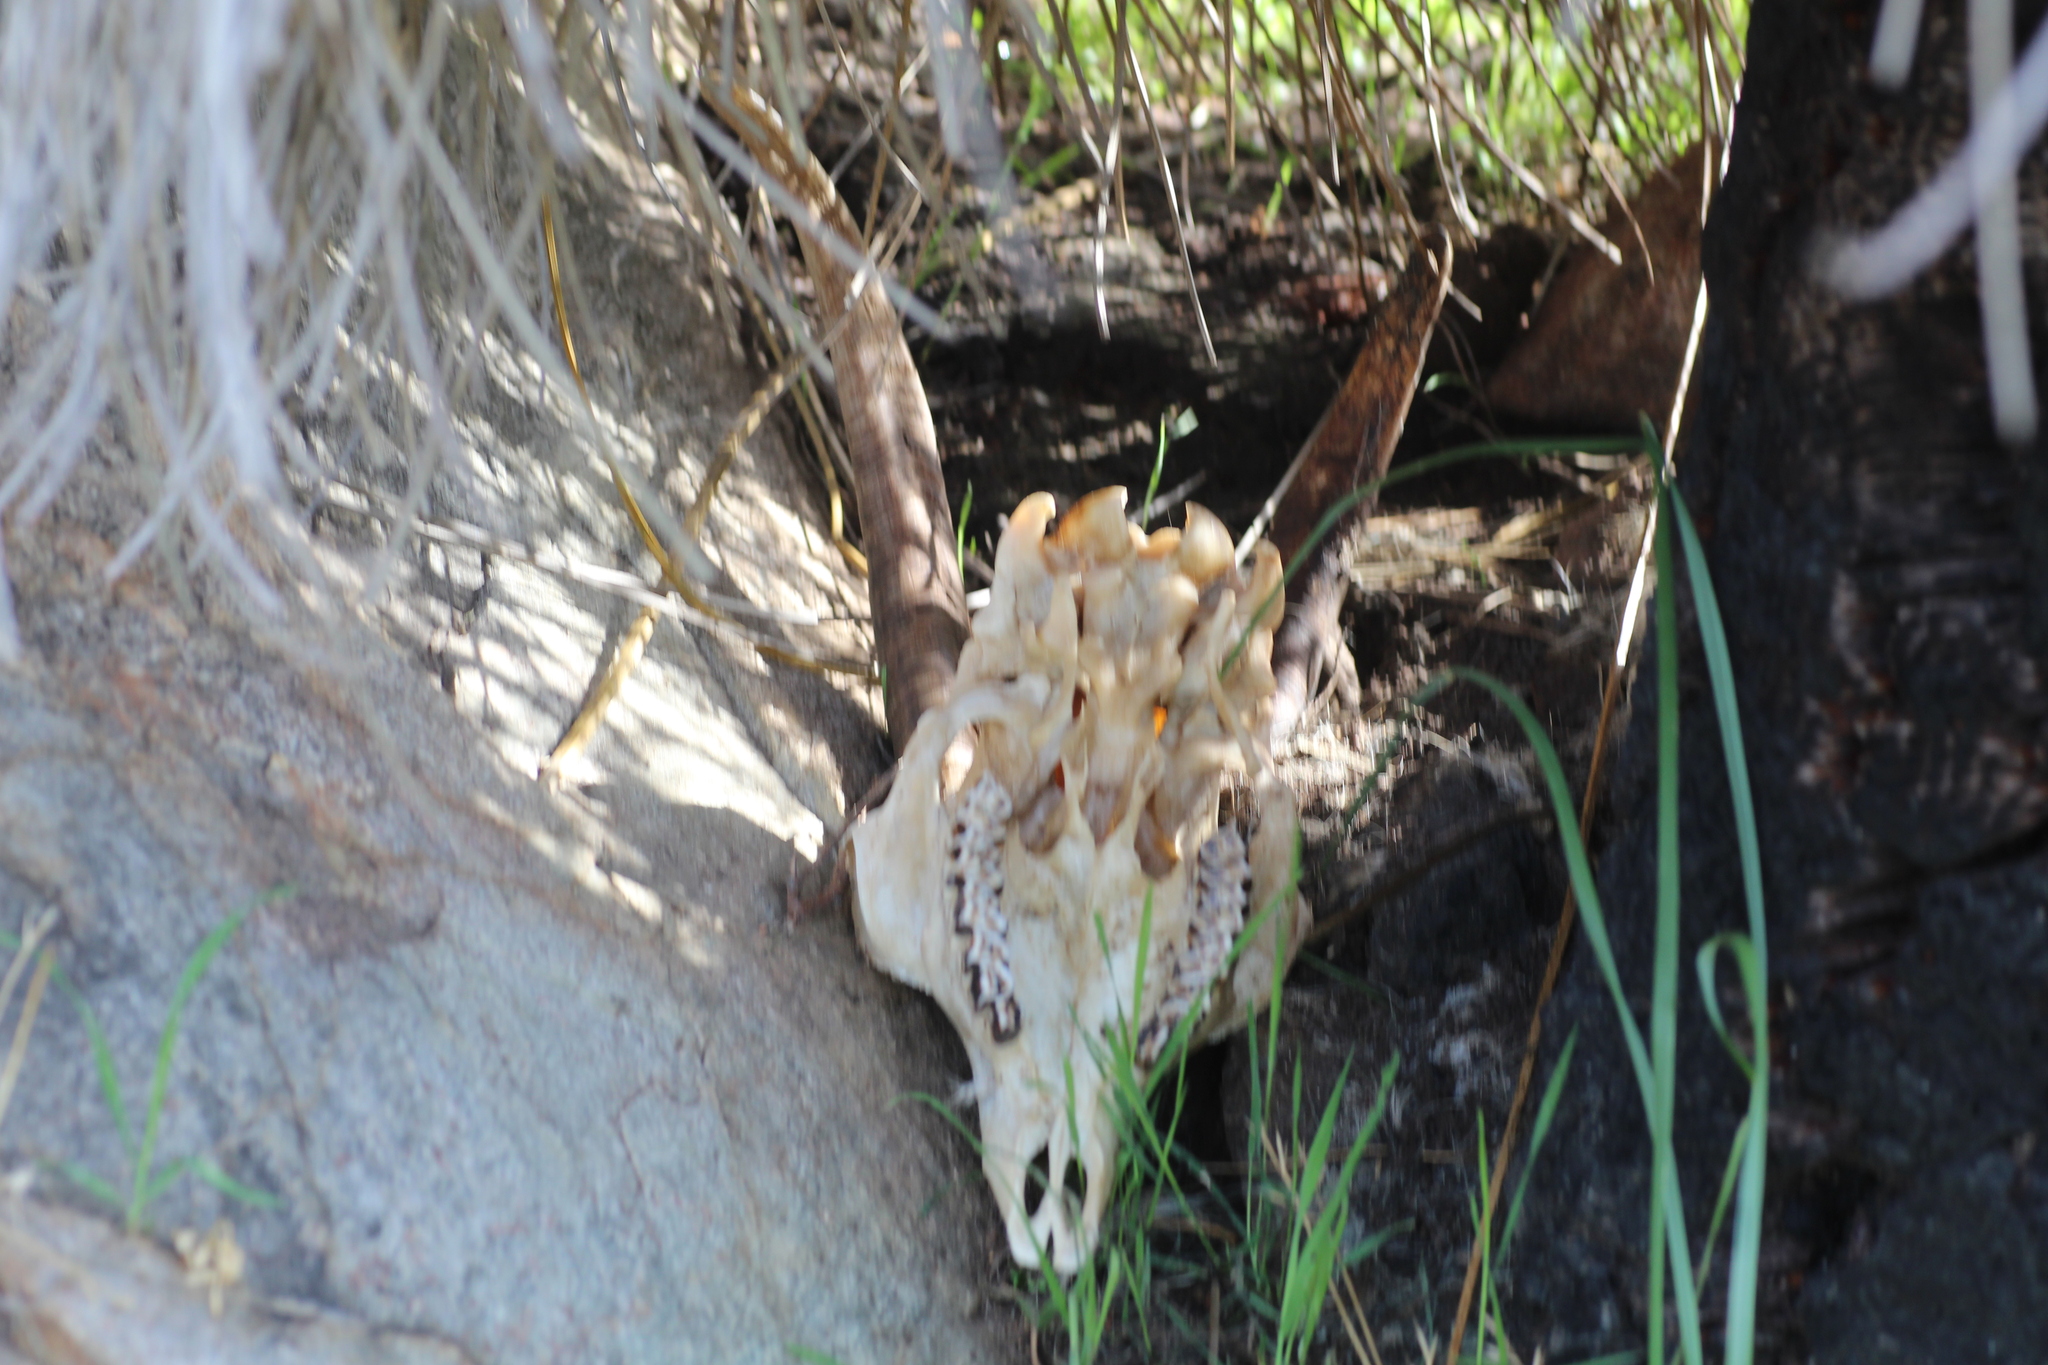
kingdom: Animalia
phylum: Chordata
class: Mammalia
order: Artiodactyla
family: Bovidae
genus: Capra
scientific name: Capra hircus
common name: Domestic goat
